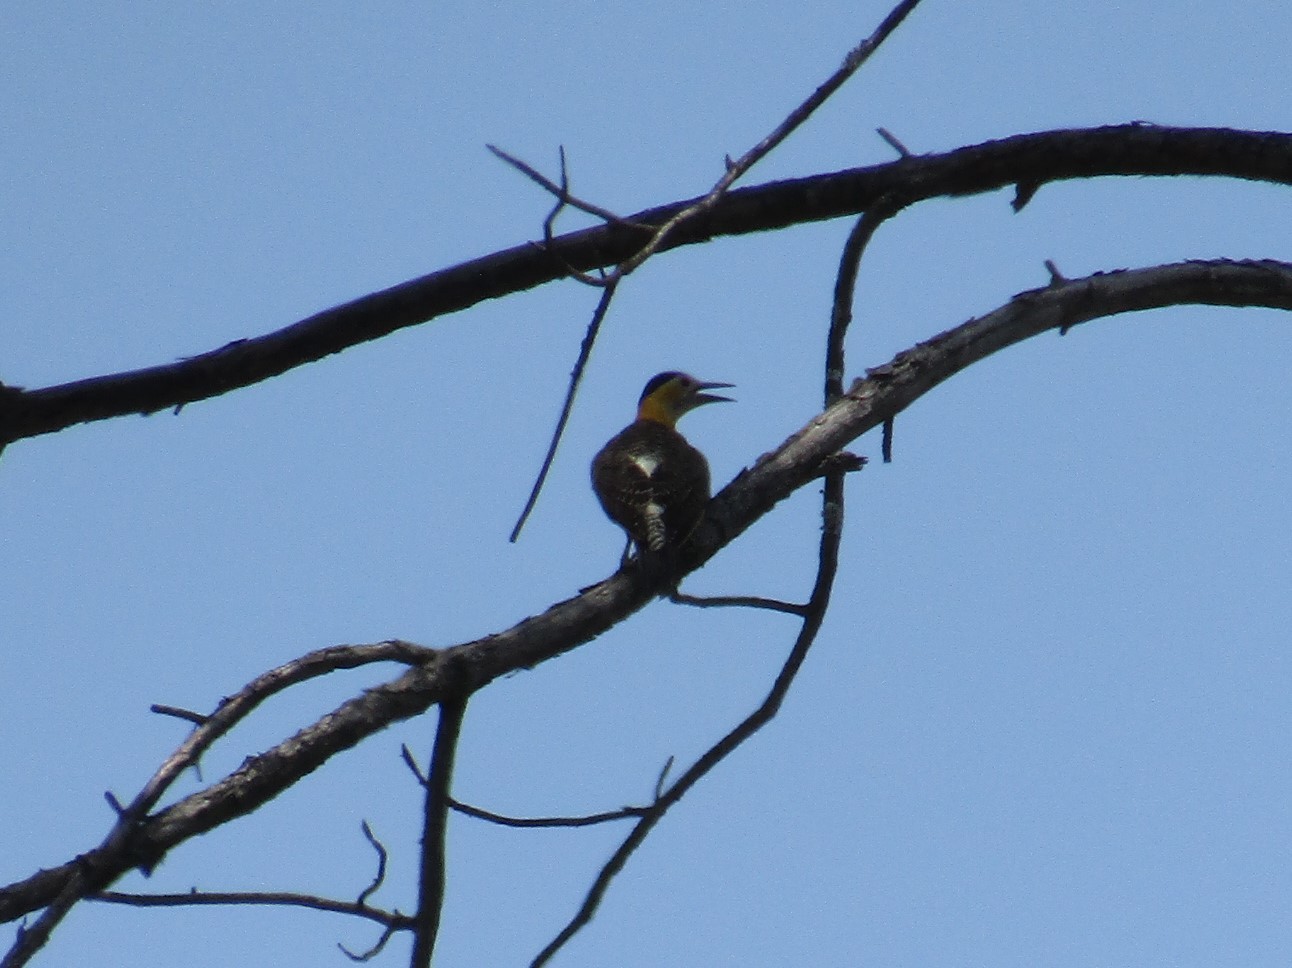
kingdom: Animalia
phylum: Chordata
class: Aves
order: Piciformes
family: Picidae
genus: Colaptes
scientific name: Colaptes campestris
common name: Campo flicker
